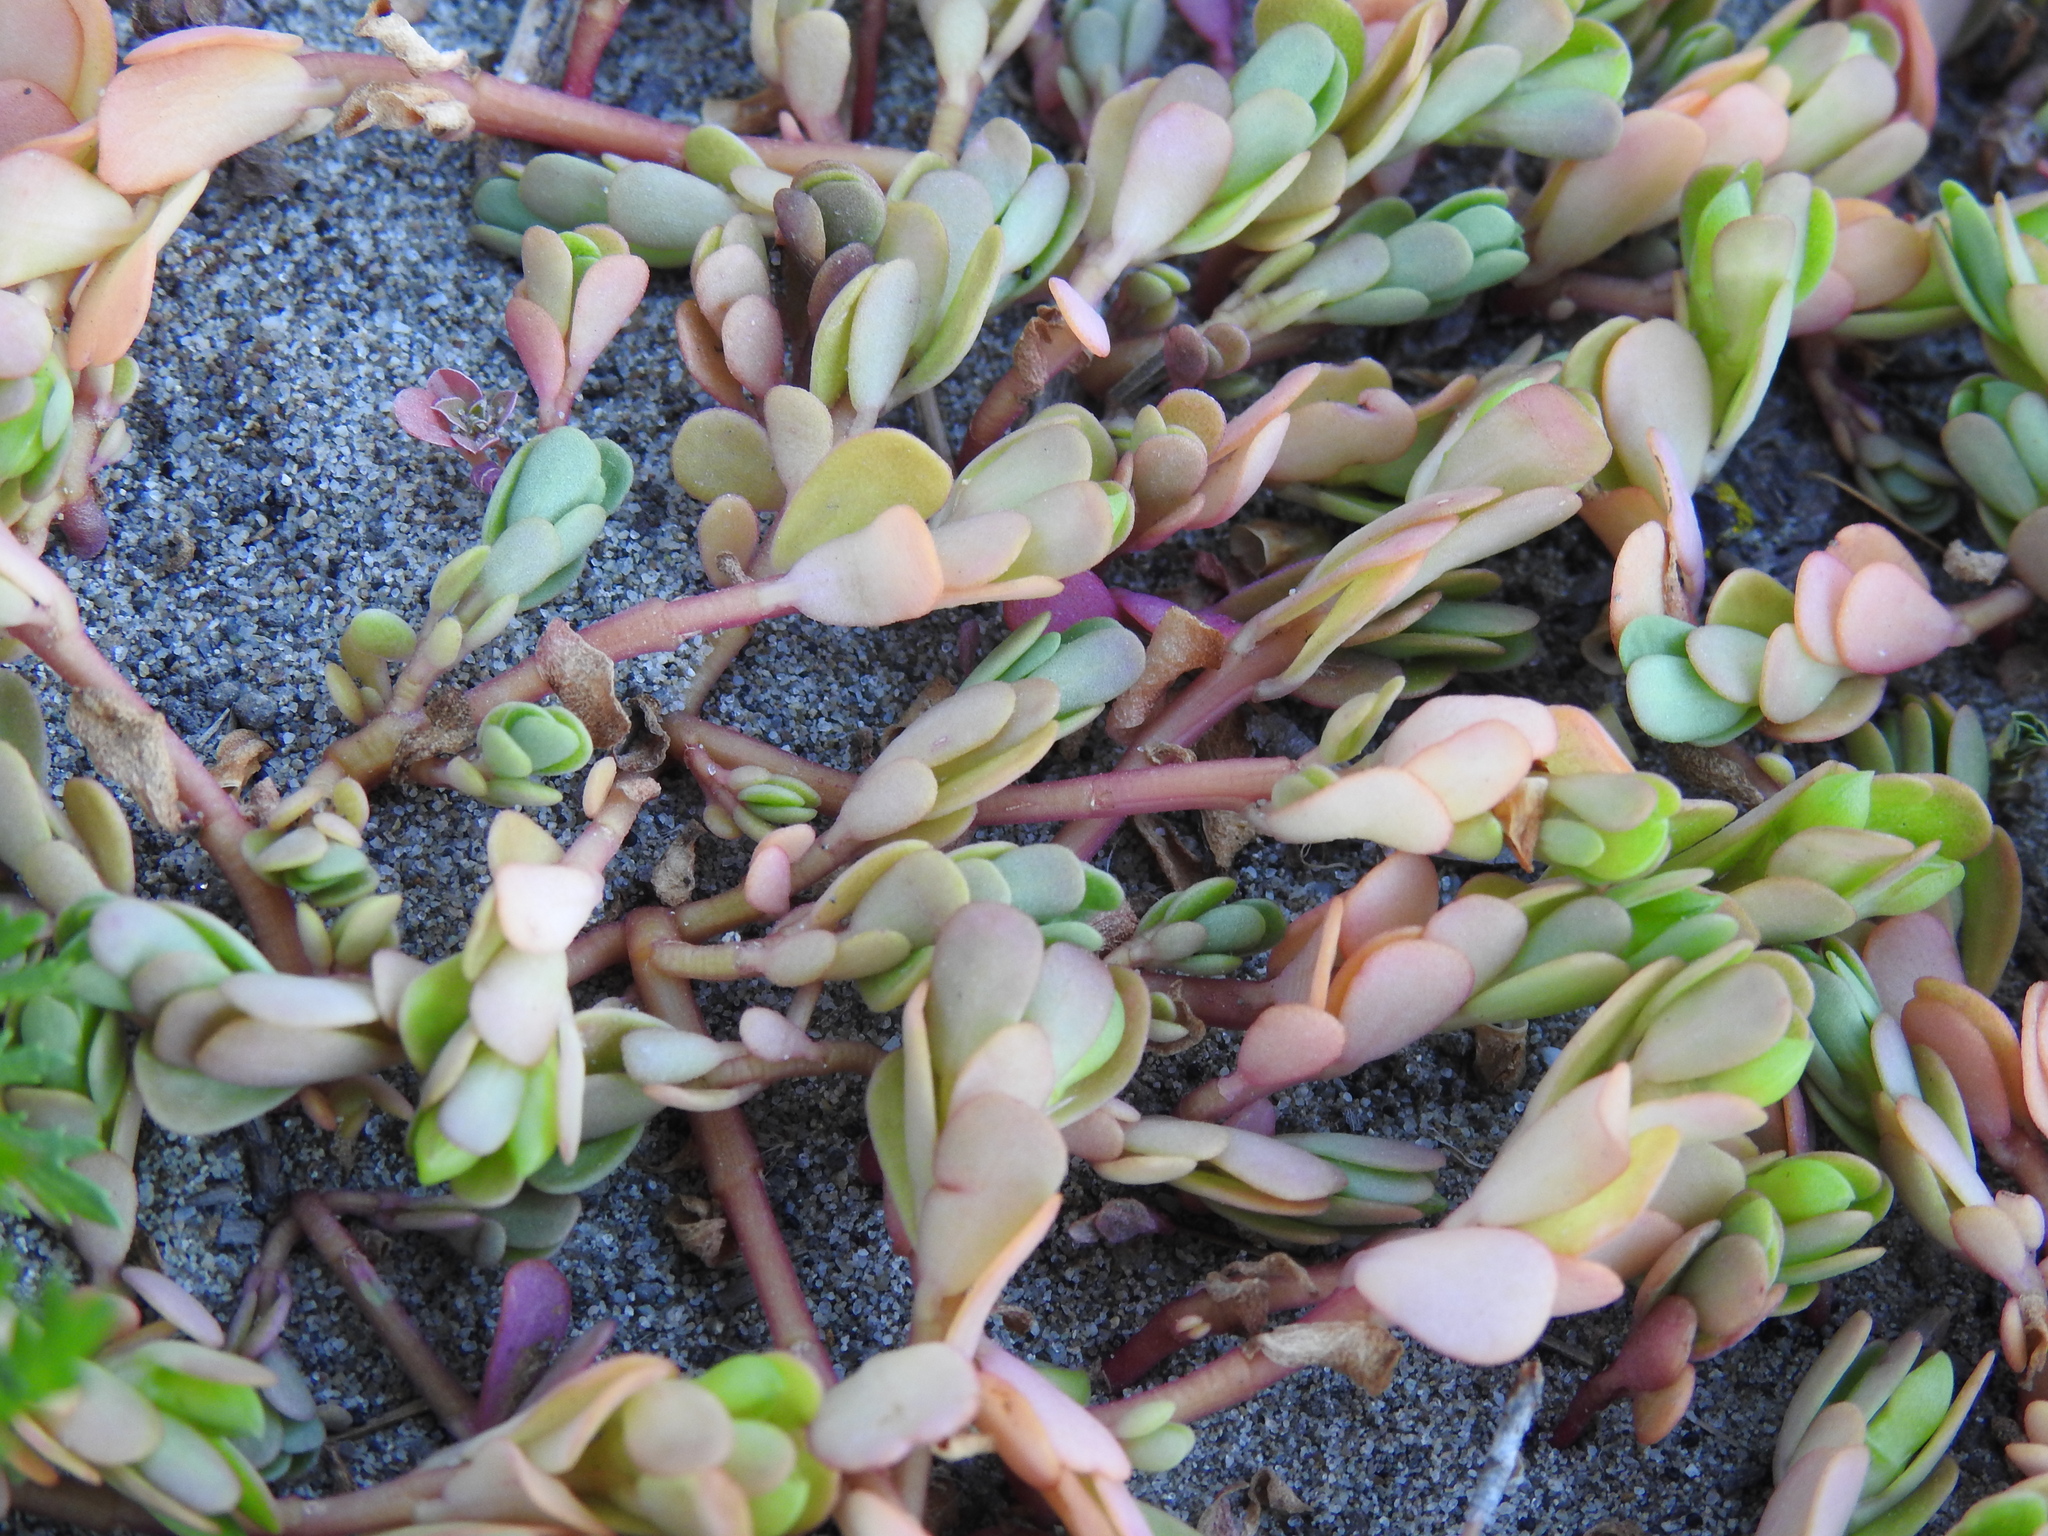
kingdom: Plantae
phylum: Tracheophyta
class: Magnoliopsida
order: Caryophyllales
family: Portulacaceae
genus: Portulaca
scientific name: Portulaca oleracea
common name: Common purslane
